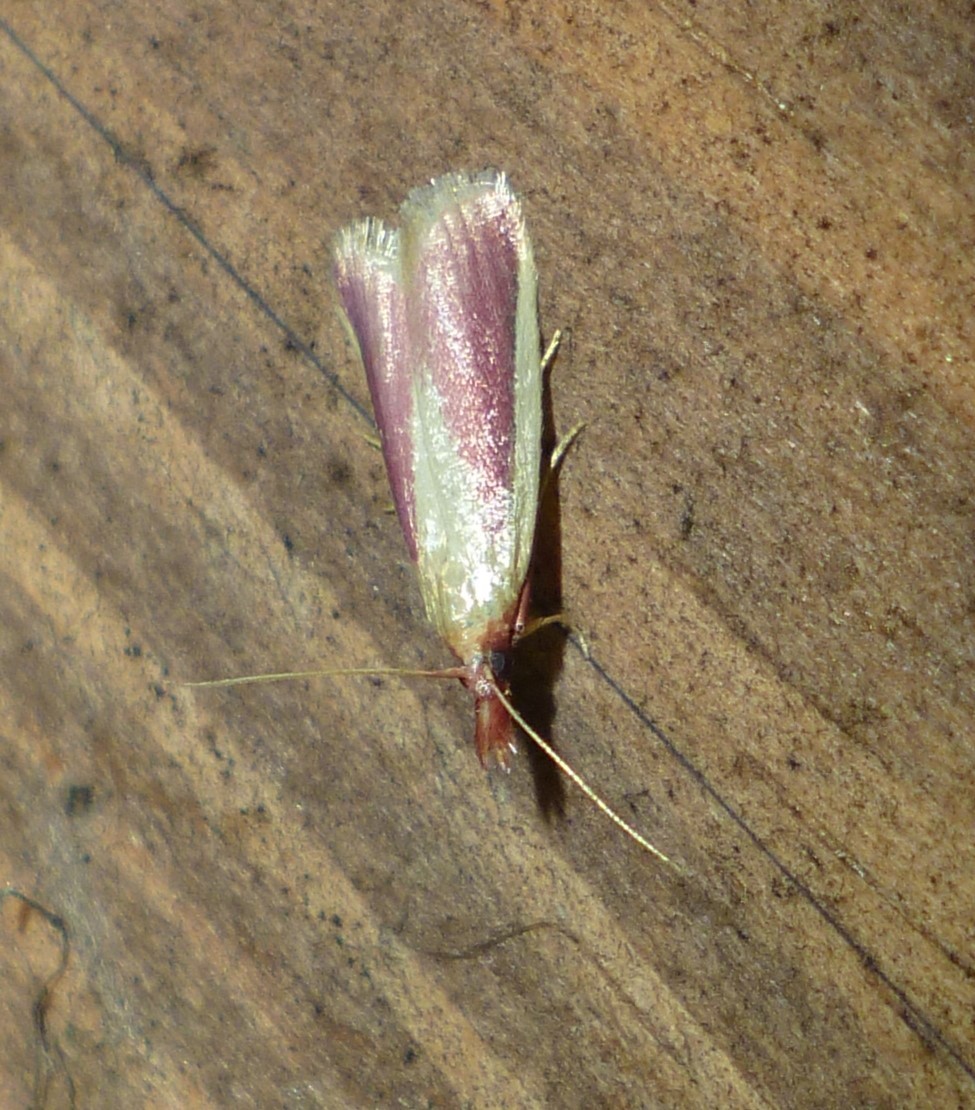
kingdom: Animalia
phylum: Arthropoda
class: Insecta
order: Lepidoptera
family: Pyralidae
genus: Peoria
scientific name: Peoria approximella
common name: Carmine snout
